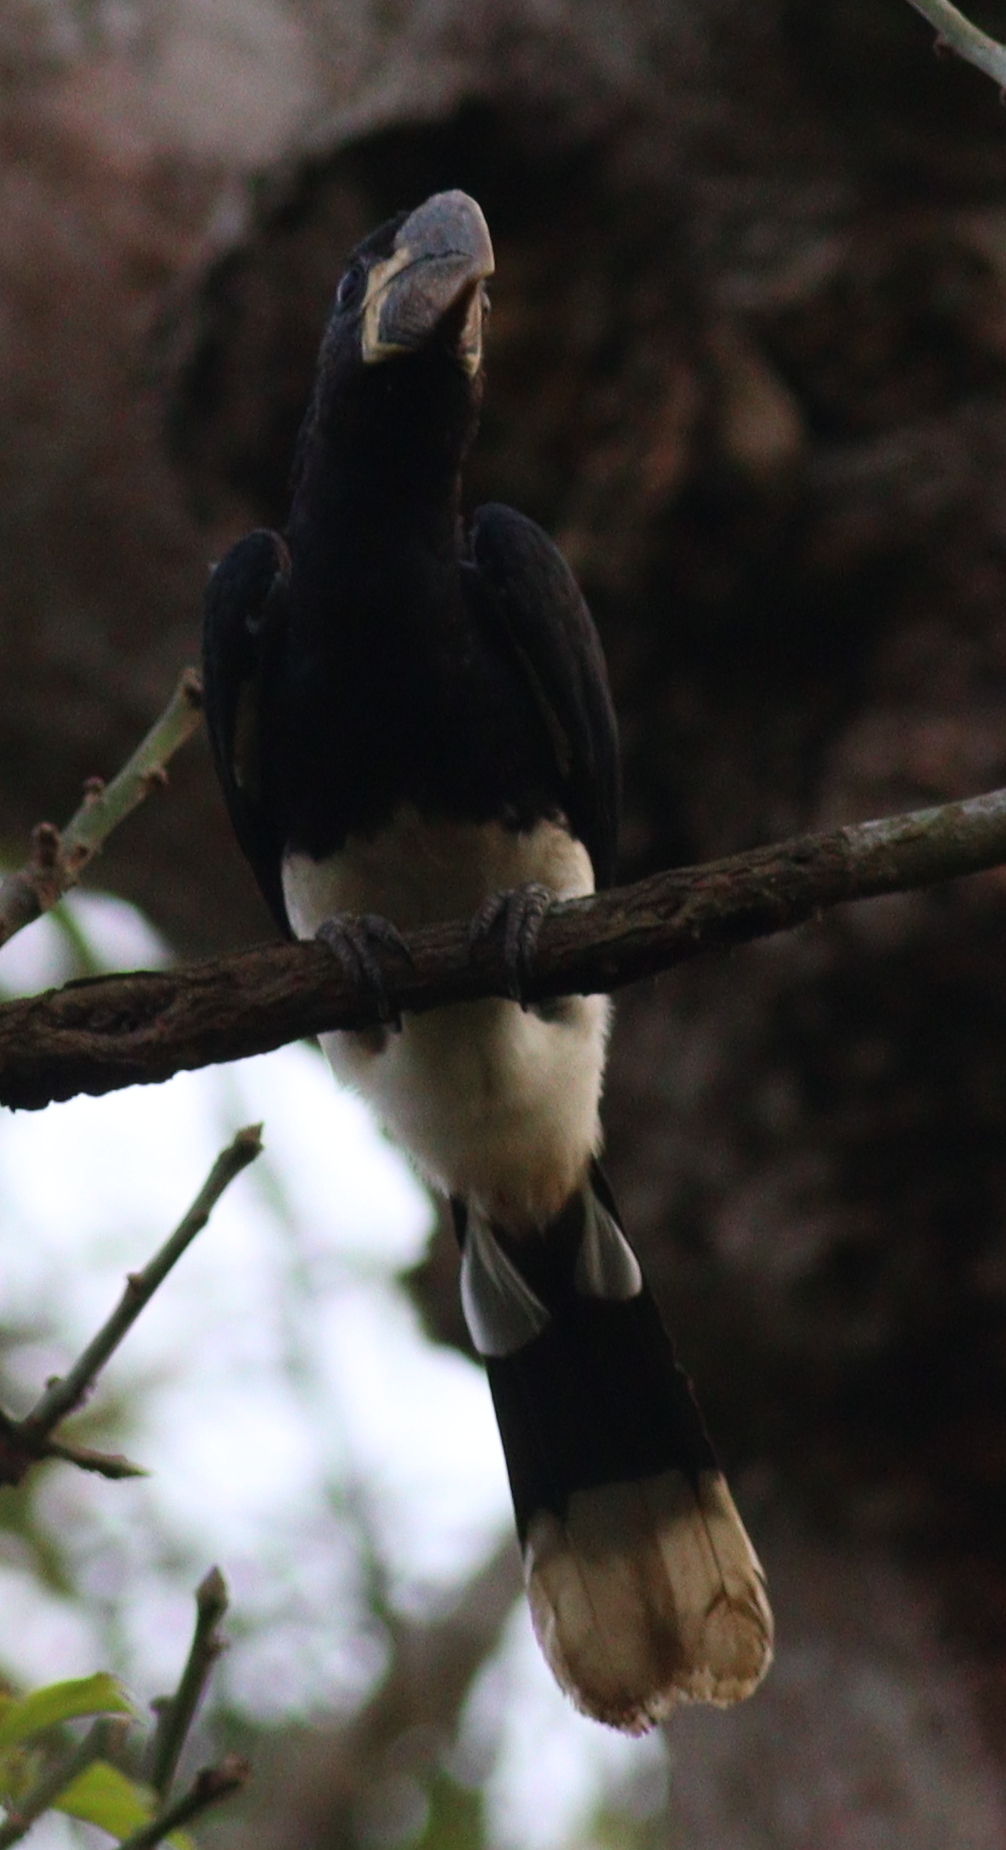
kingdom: Animalia
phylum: Chordata
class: Aves
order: Bucerotiformes
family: Bucerotidae
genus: Bycanistes
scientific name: Bycanistes fistulator
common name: Piping hornbill
